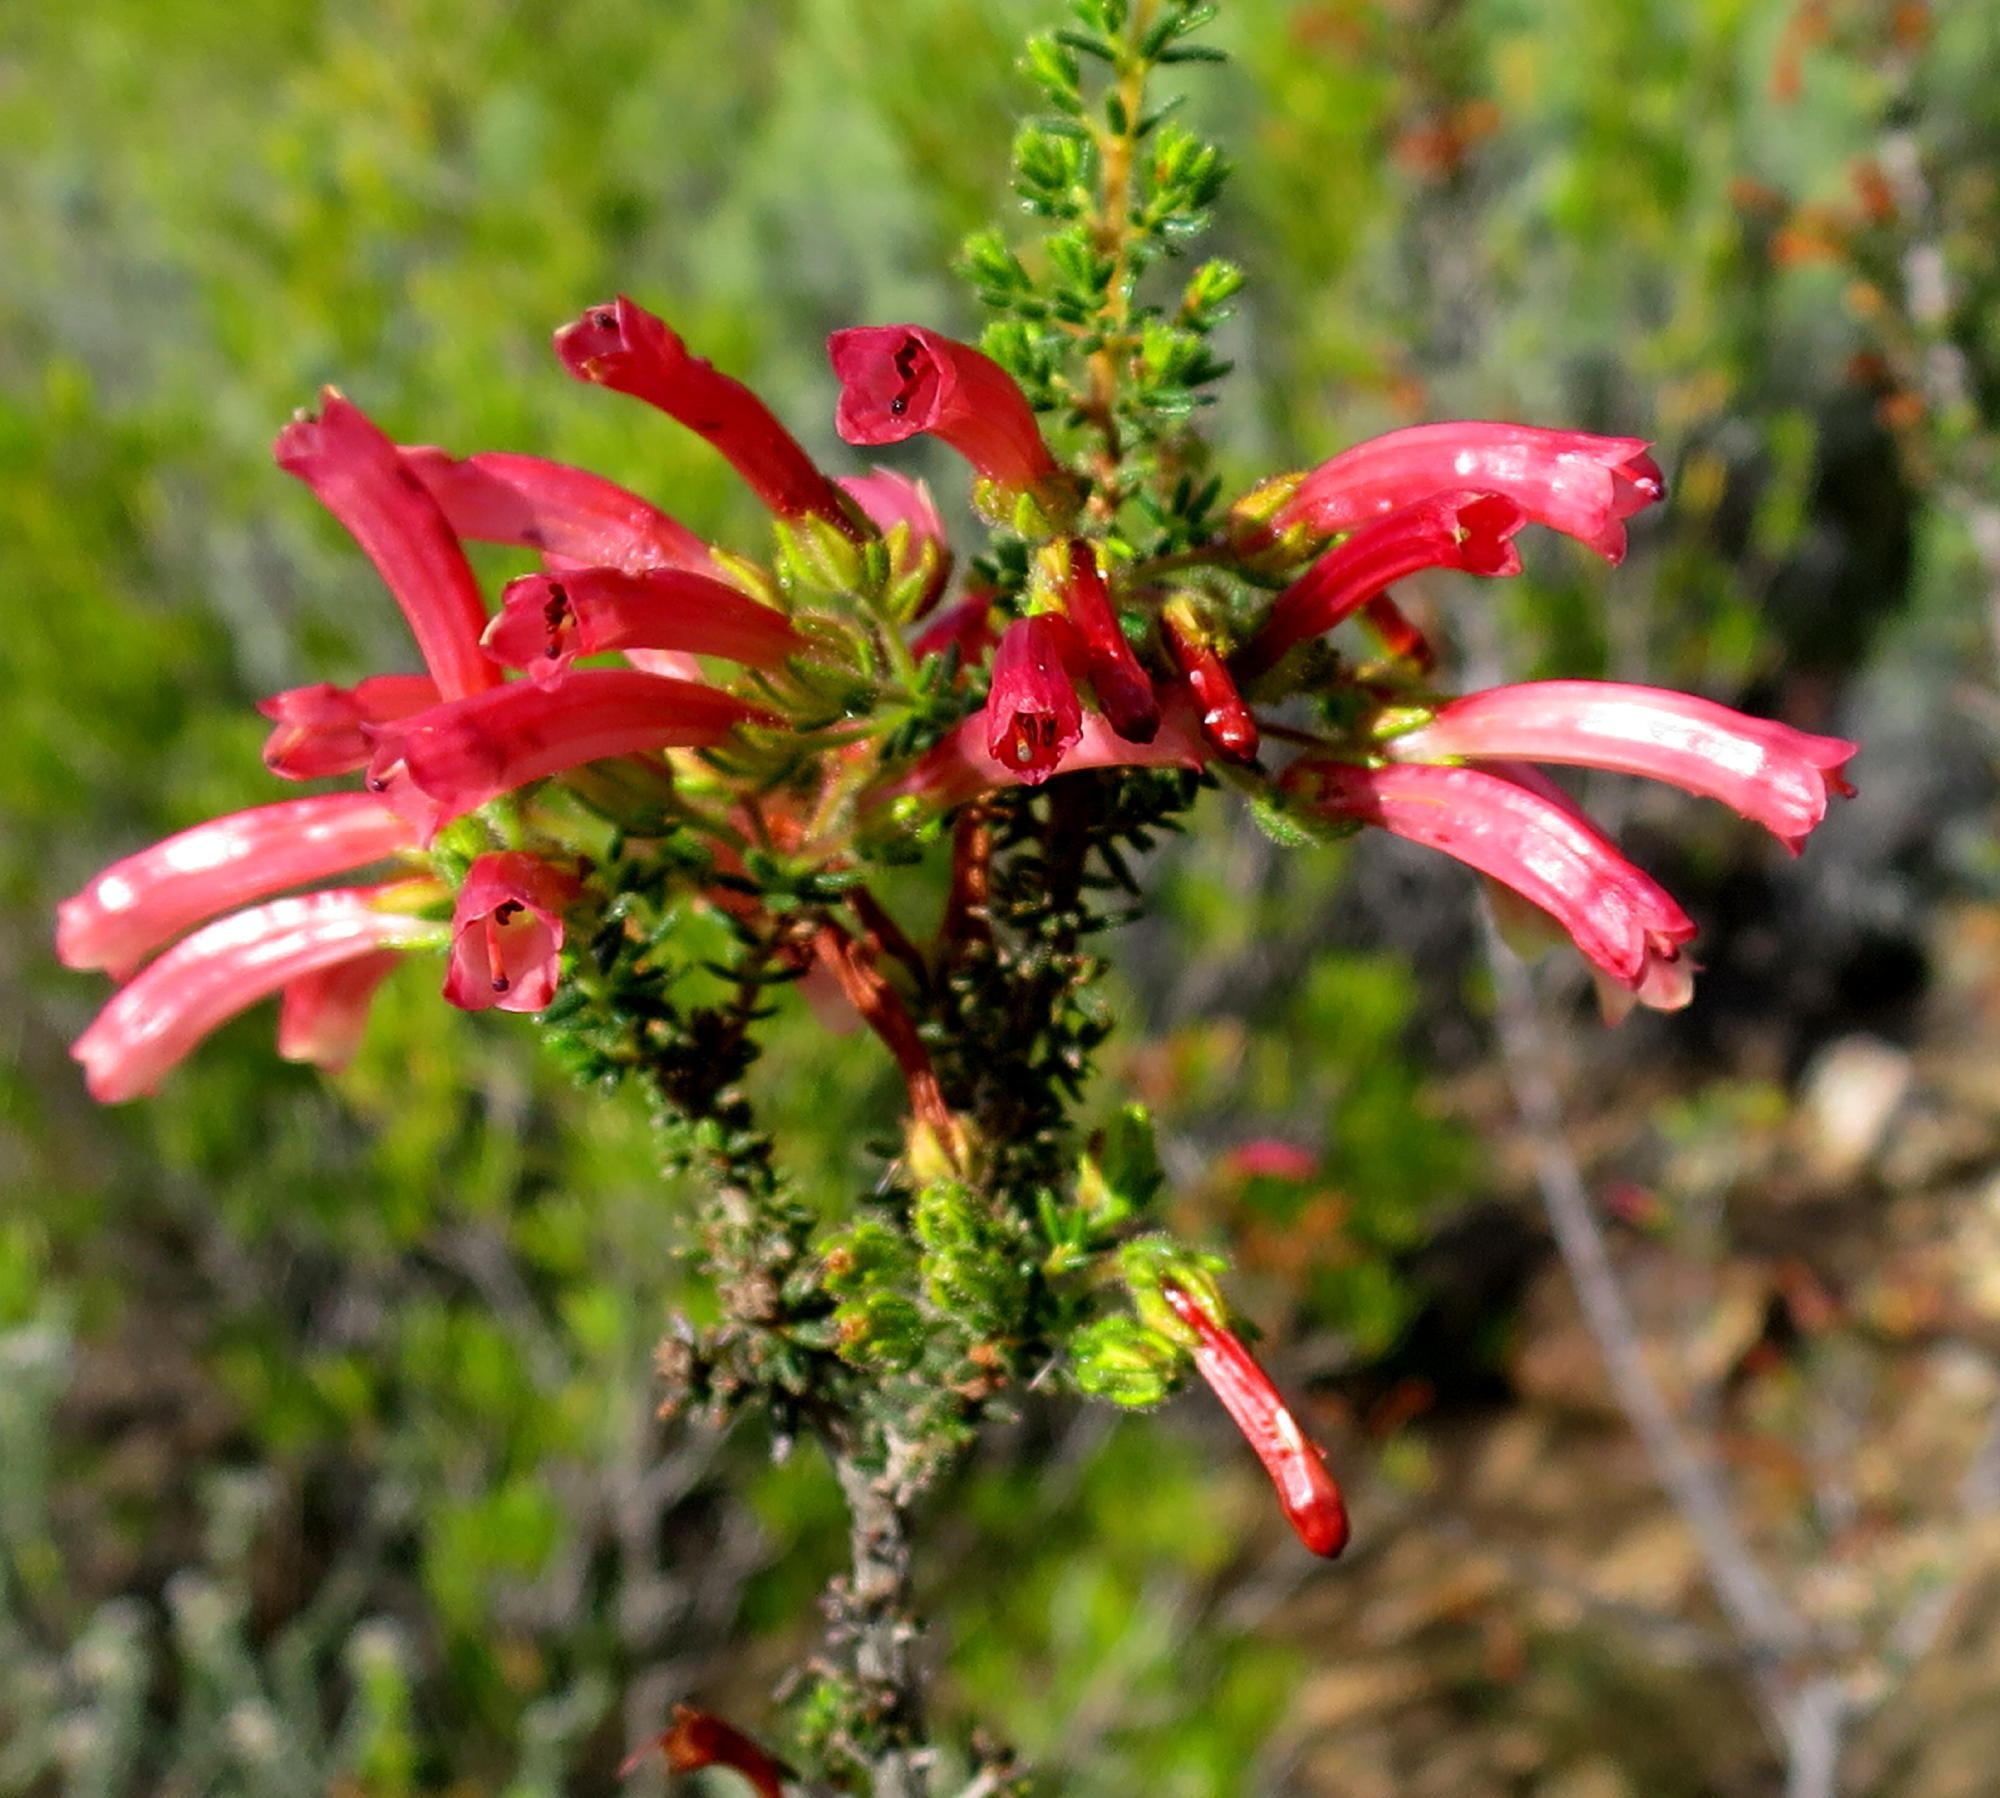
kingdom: Plantae
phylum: Tracheophyta
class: Magnoliopsida
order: Ericales
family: Ericaceae
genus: Erica
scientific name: Erica glandulosa
